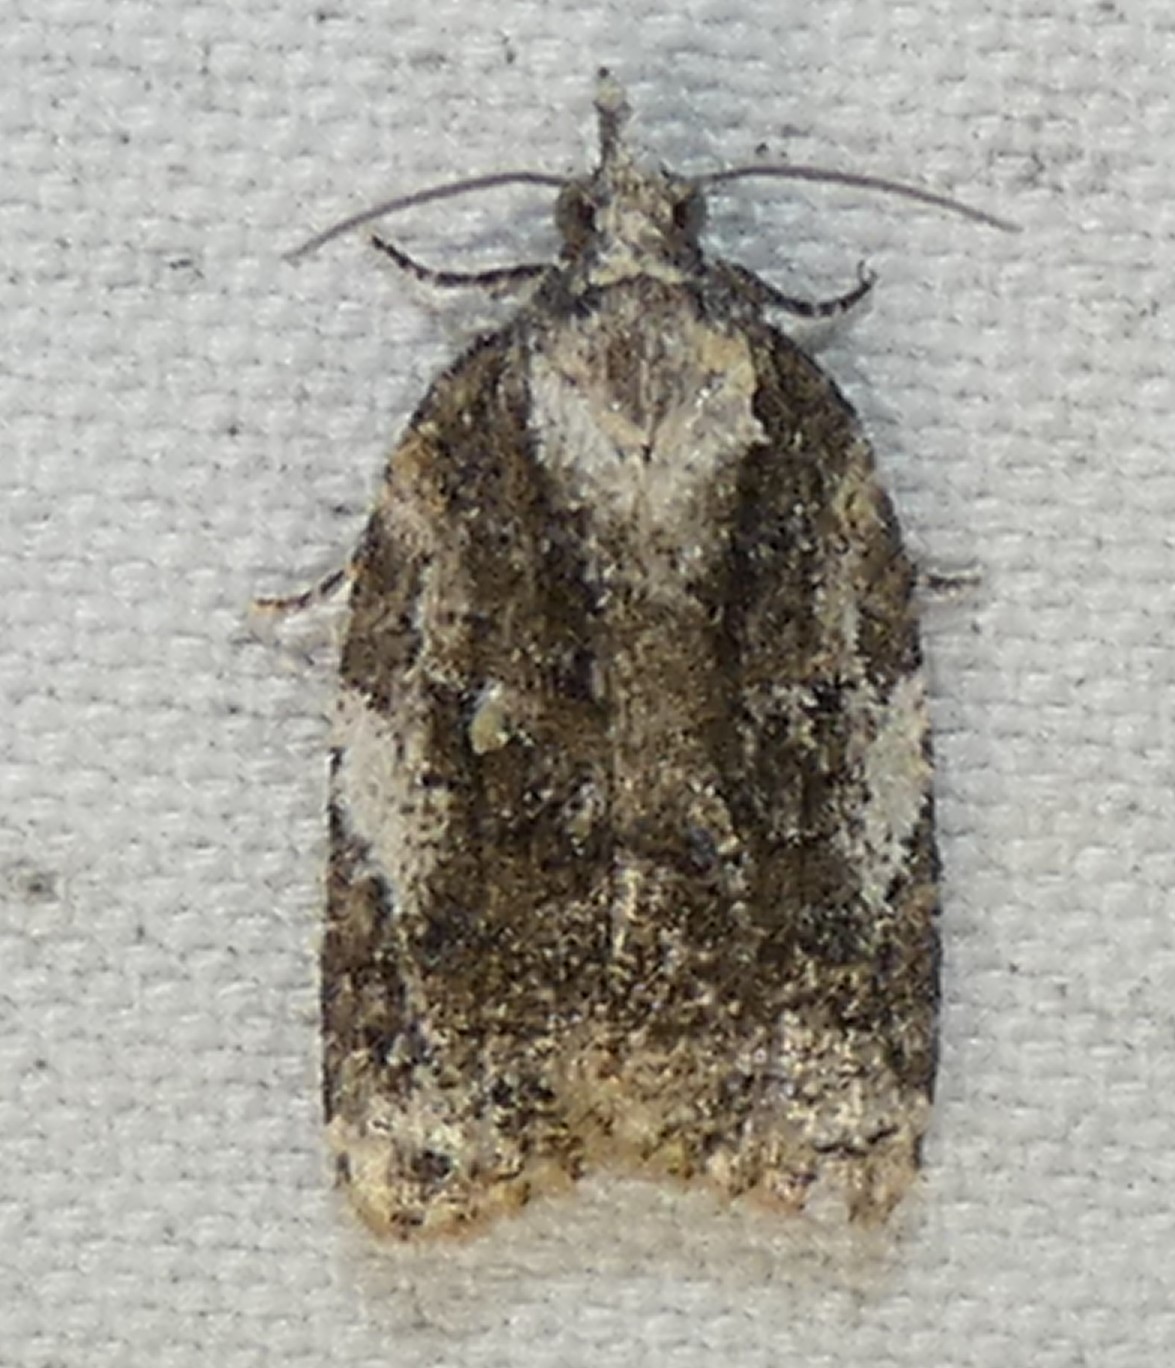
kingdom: Animalia
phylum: Arthropoda
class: Insecta
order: Lepidoptera
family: Tortricidae
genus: Platynota
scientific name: Platynota exasperatana
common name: Exasperating platynota moth
